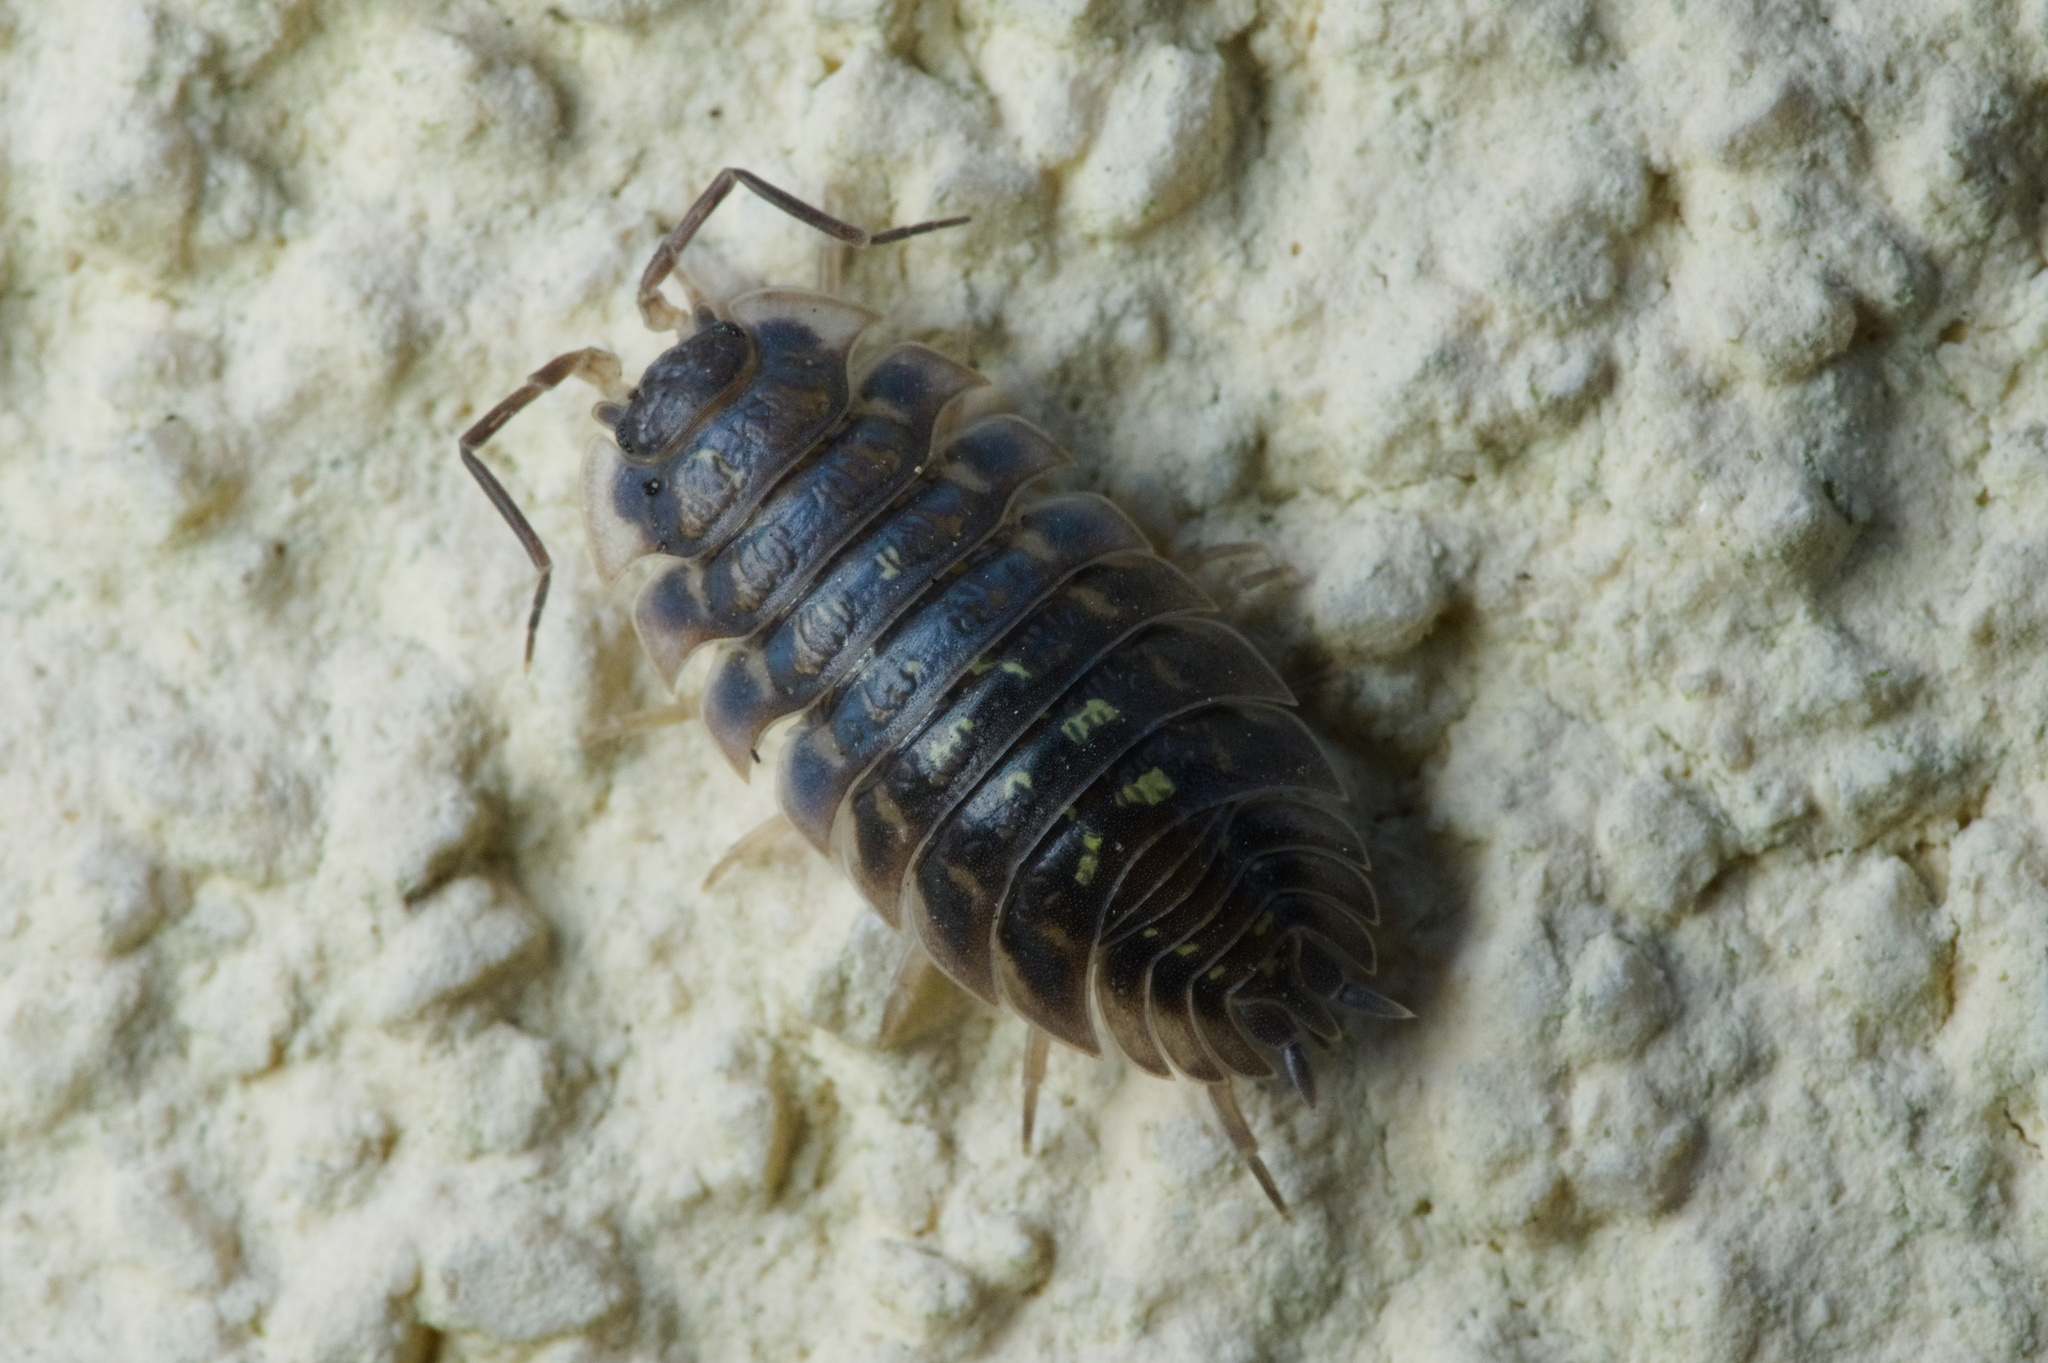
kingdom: Animalia
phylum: Arthropoda
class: Malacostraca
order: Isopoda
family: Oniscidae
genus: Oniscus
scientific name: Oniscus asellus
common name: Common shiny woodlouse
